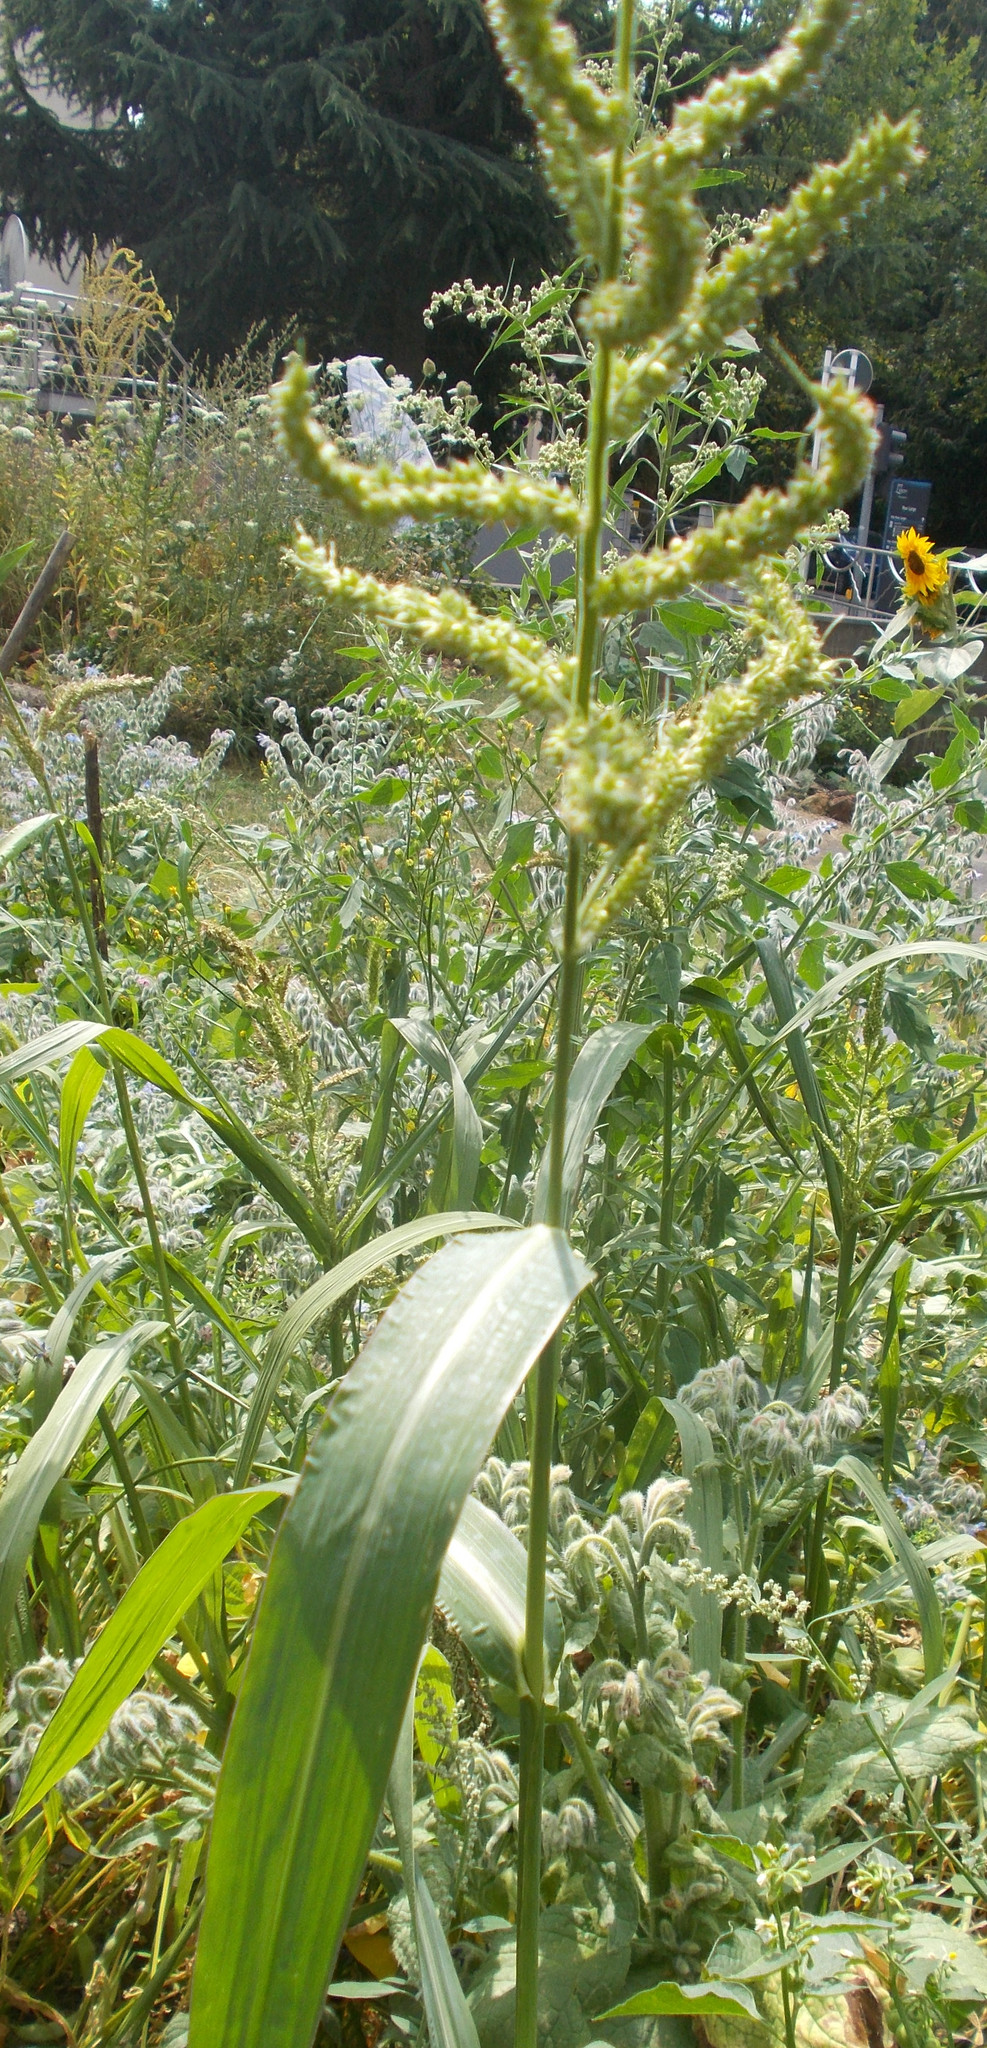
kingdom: Plantae
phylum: Tracheophyta
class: Liliopsida
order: Poales
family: Poaceae
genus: Echinochloa
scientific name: Echinochloa crus-galli
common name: Cockspur
